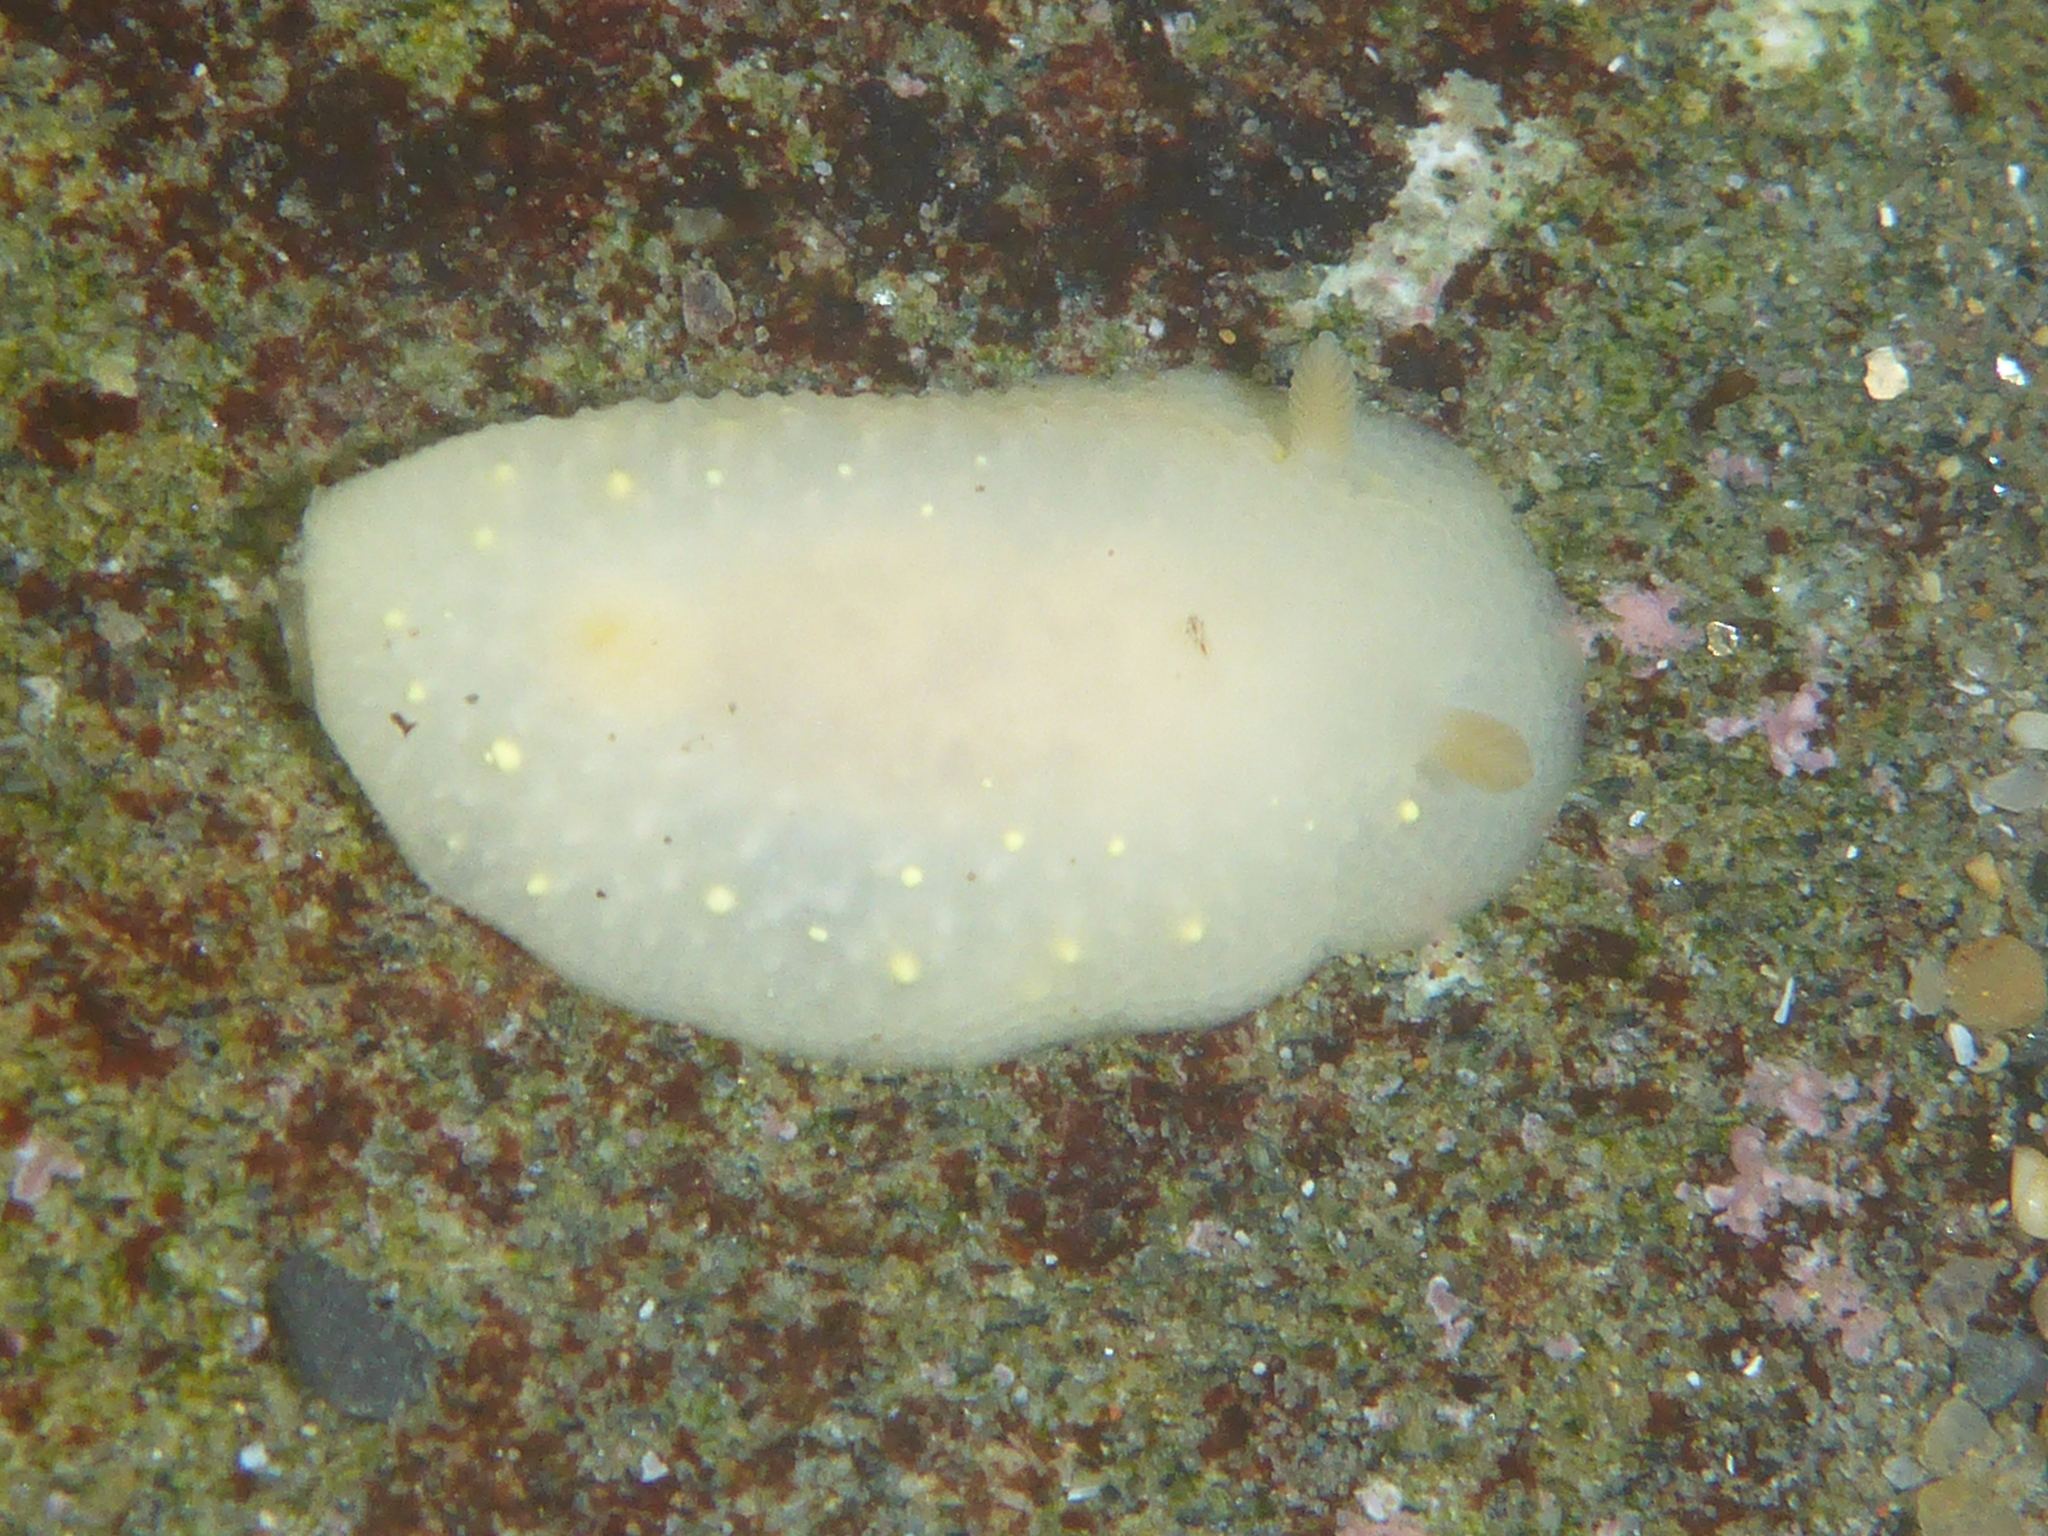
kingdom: Animalia
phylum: Mollusca
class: Gastropoda
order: Nudibranchia
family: Cadlinidae
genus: Cadlina
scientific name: Cadlina modesta
